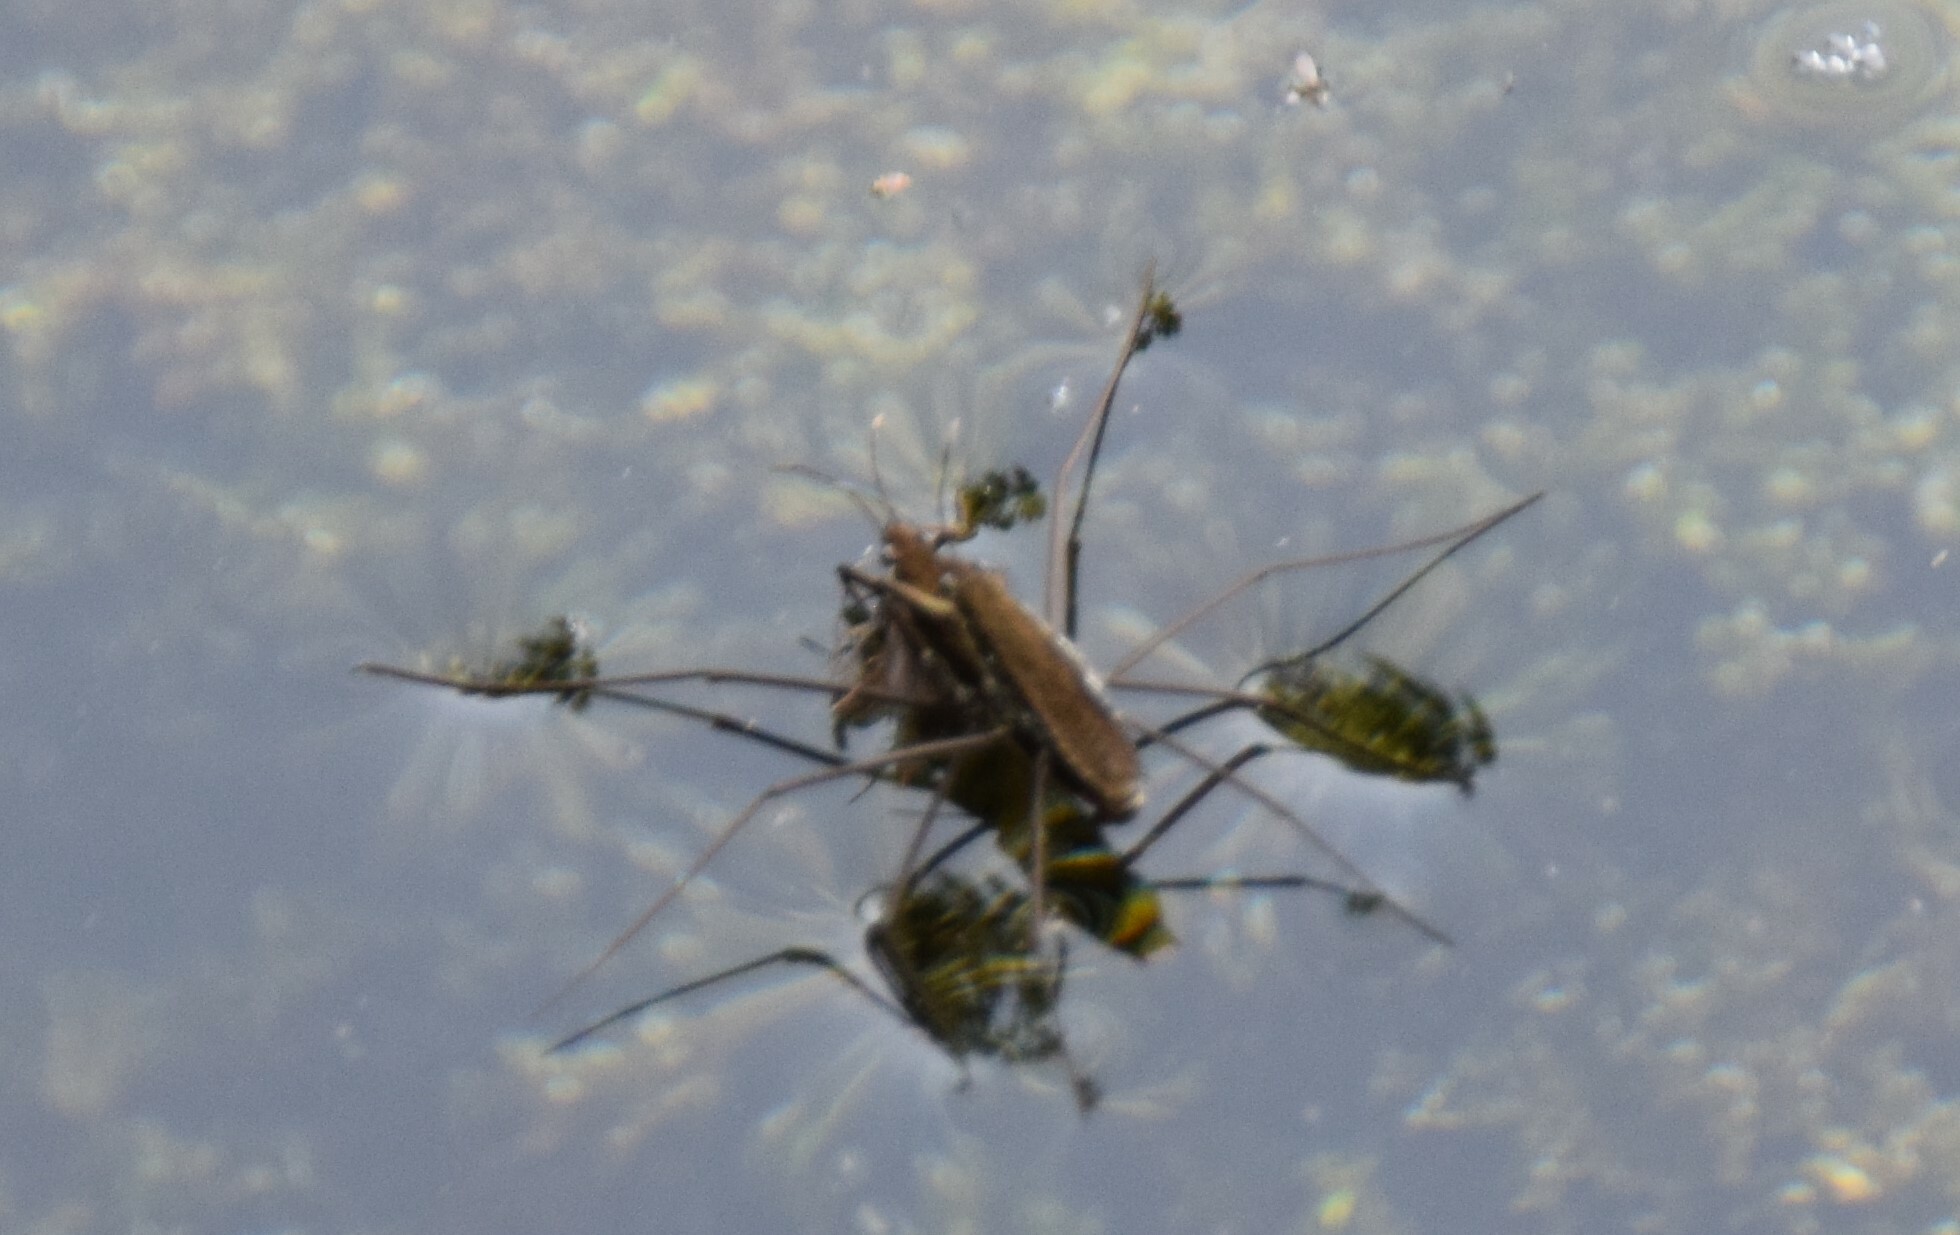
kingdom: Animalia
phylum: Arthropoda
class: Insecta
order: Hemiptera
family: Gerridae
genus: Aquarius
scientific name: Aquarius remigis
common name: Common water strider
